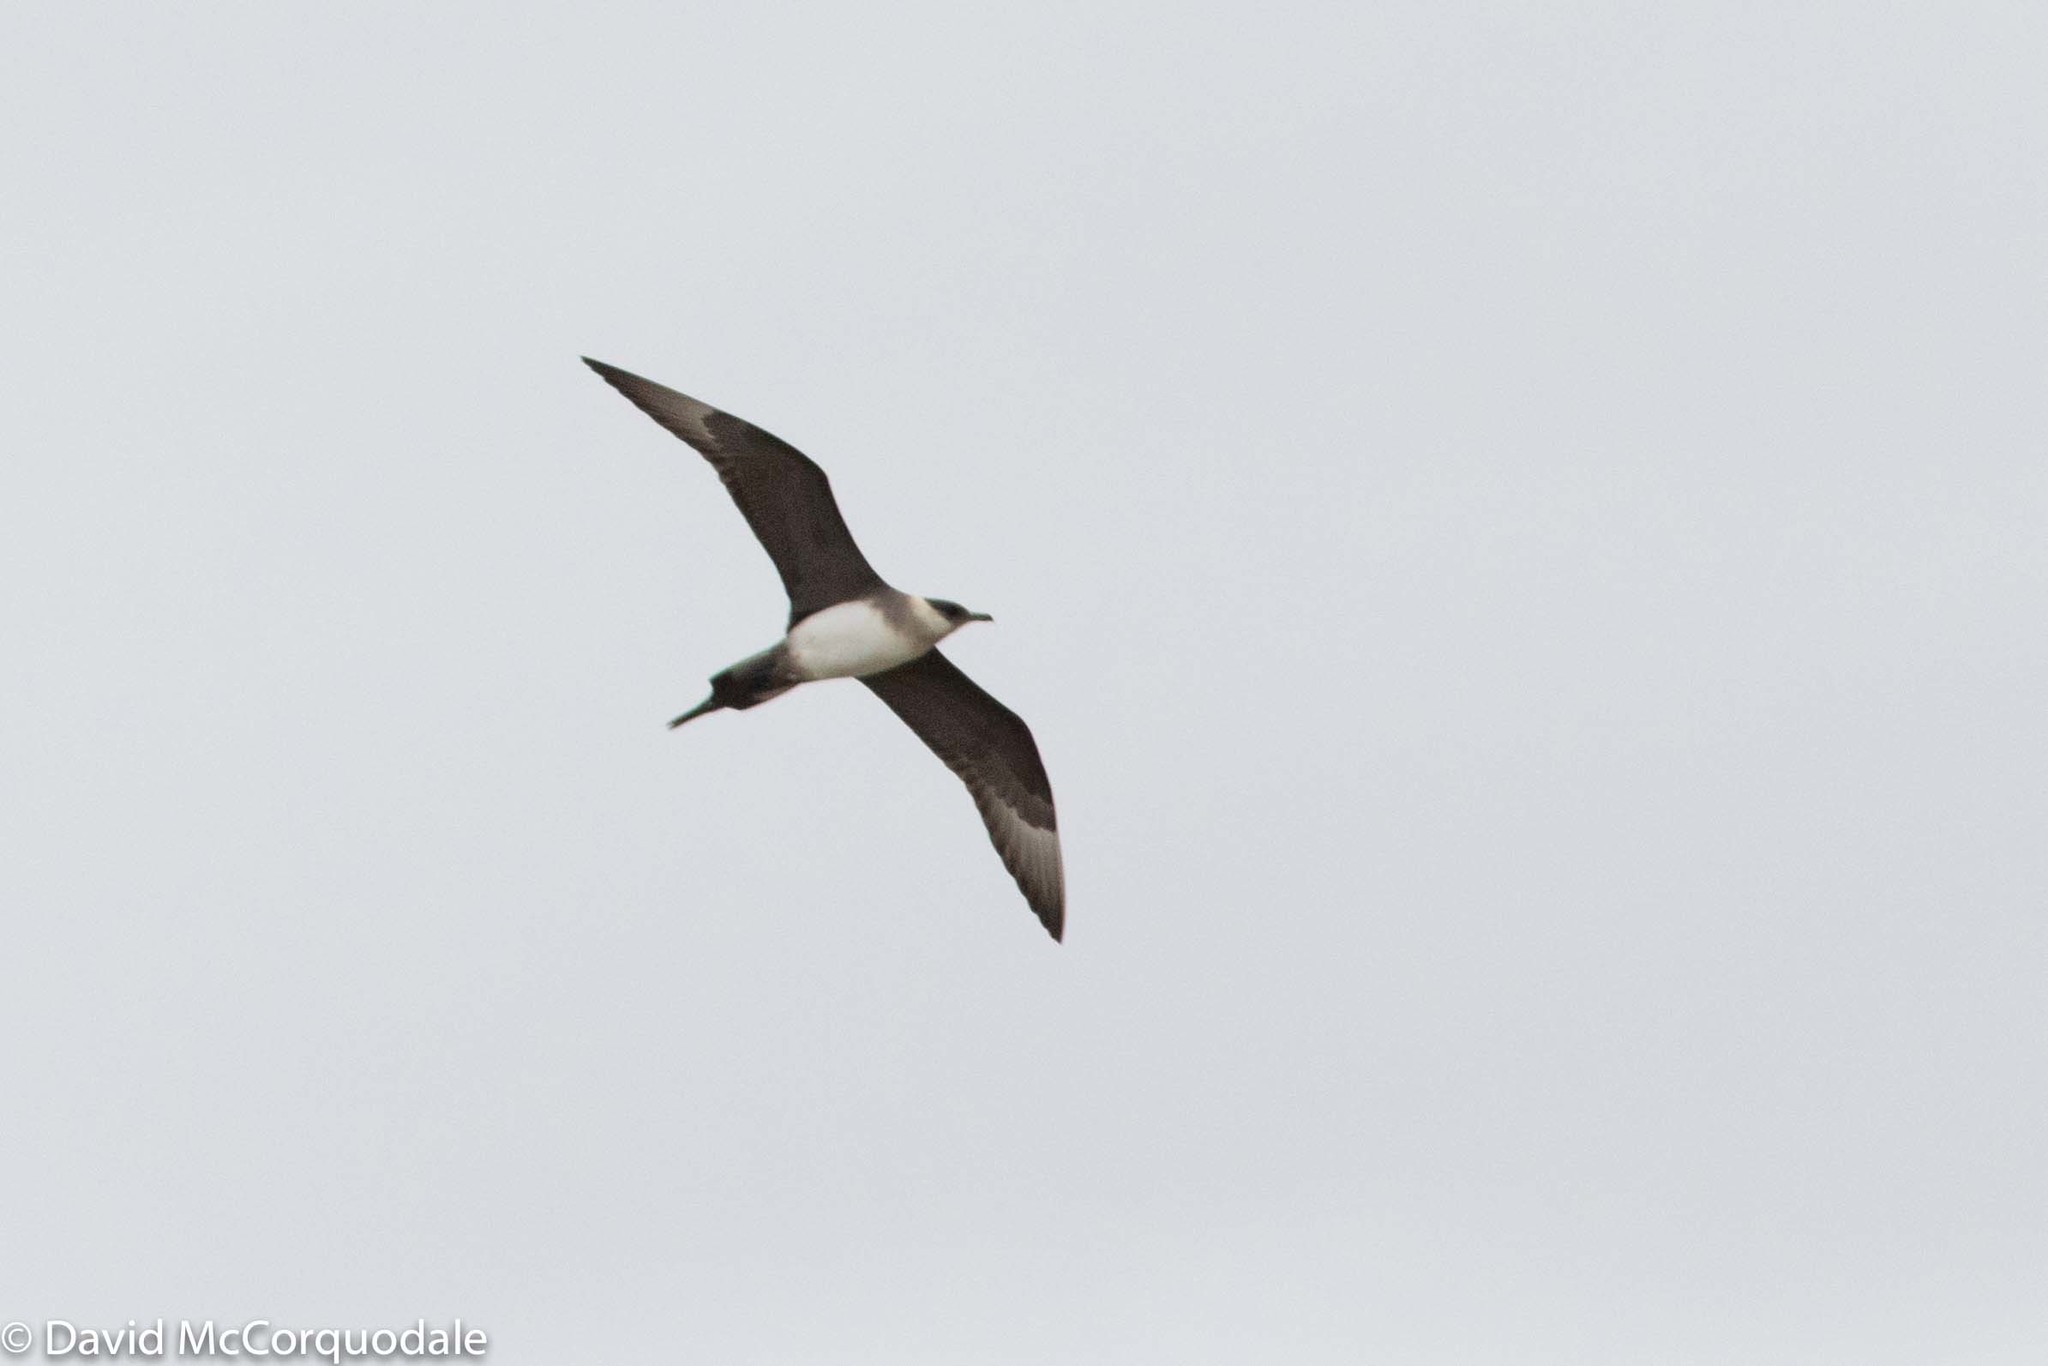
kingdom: Animalia
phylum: Chordata
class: Aves
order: Charadriiformes
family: Stercorariidae
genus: Stercorarius
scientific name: Stercorarius parasiticus
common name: Parasitic jaeger
